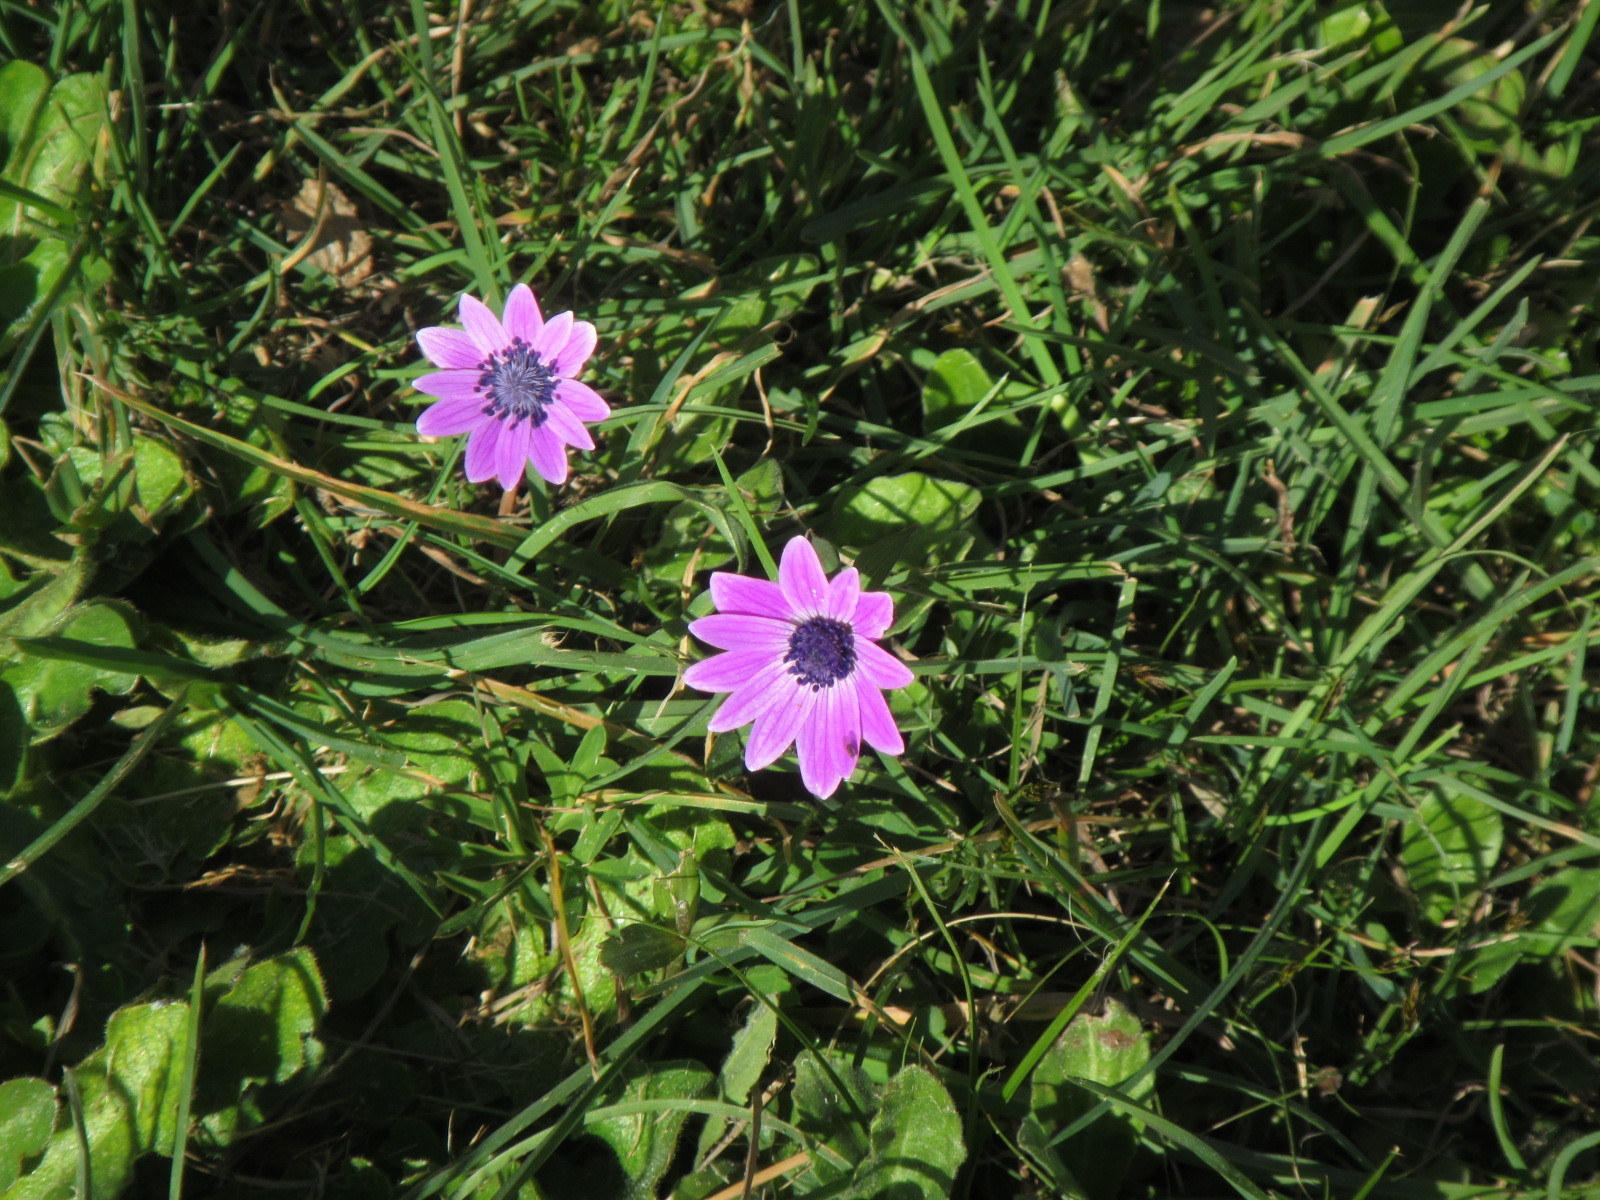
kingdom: Plantae
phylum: Tracheophyta
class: Magnoliopsida
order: Ranunculales
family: Ranunculaceae
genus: Anemone
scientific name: Anemone hortensis
